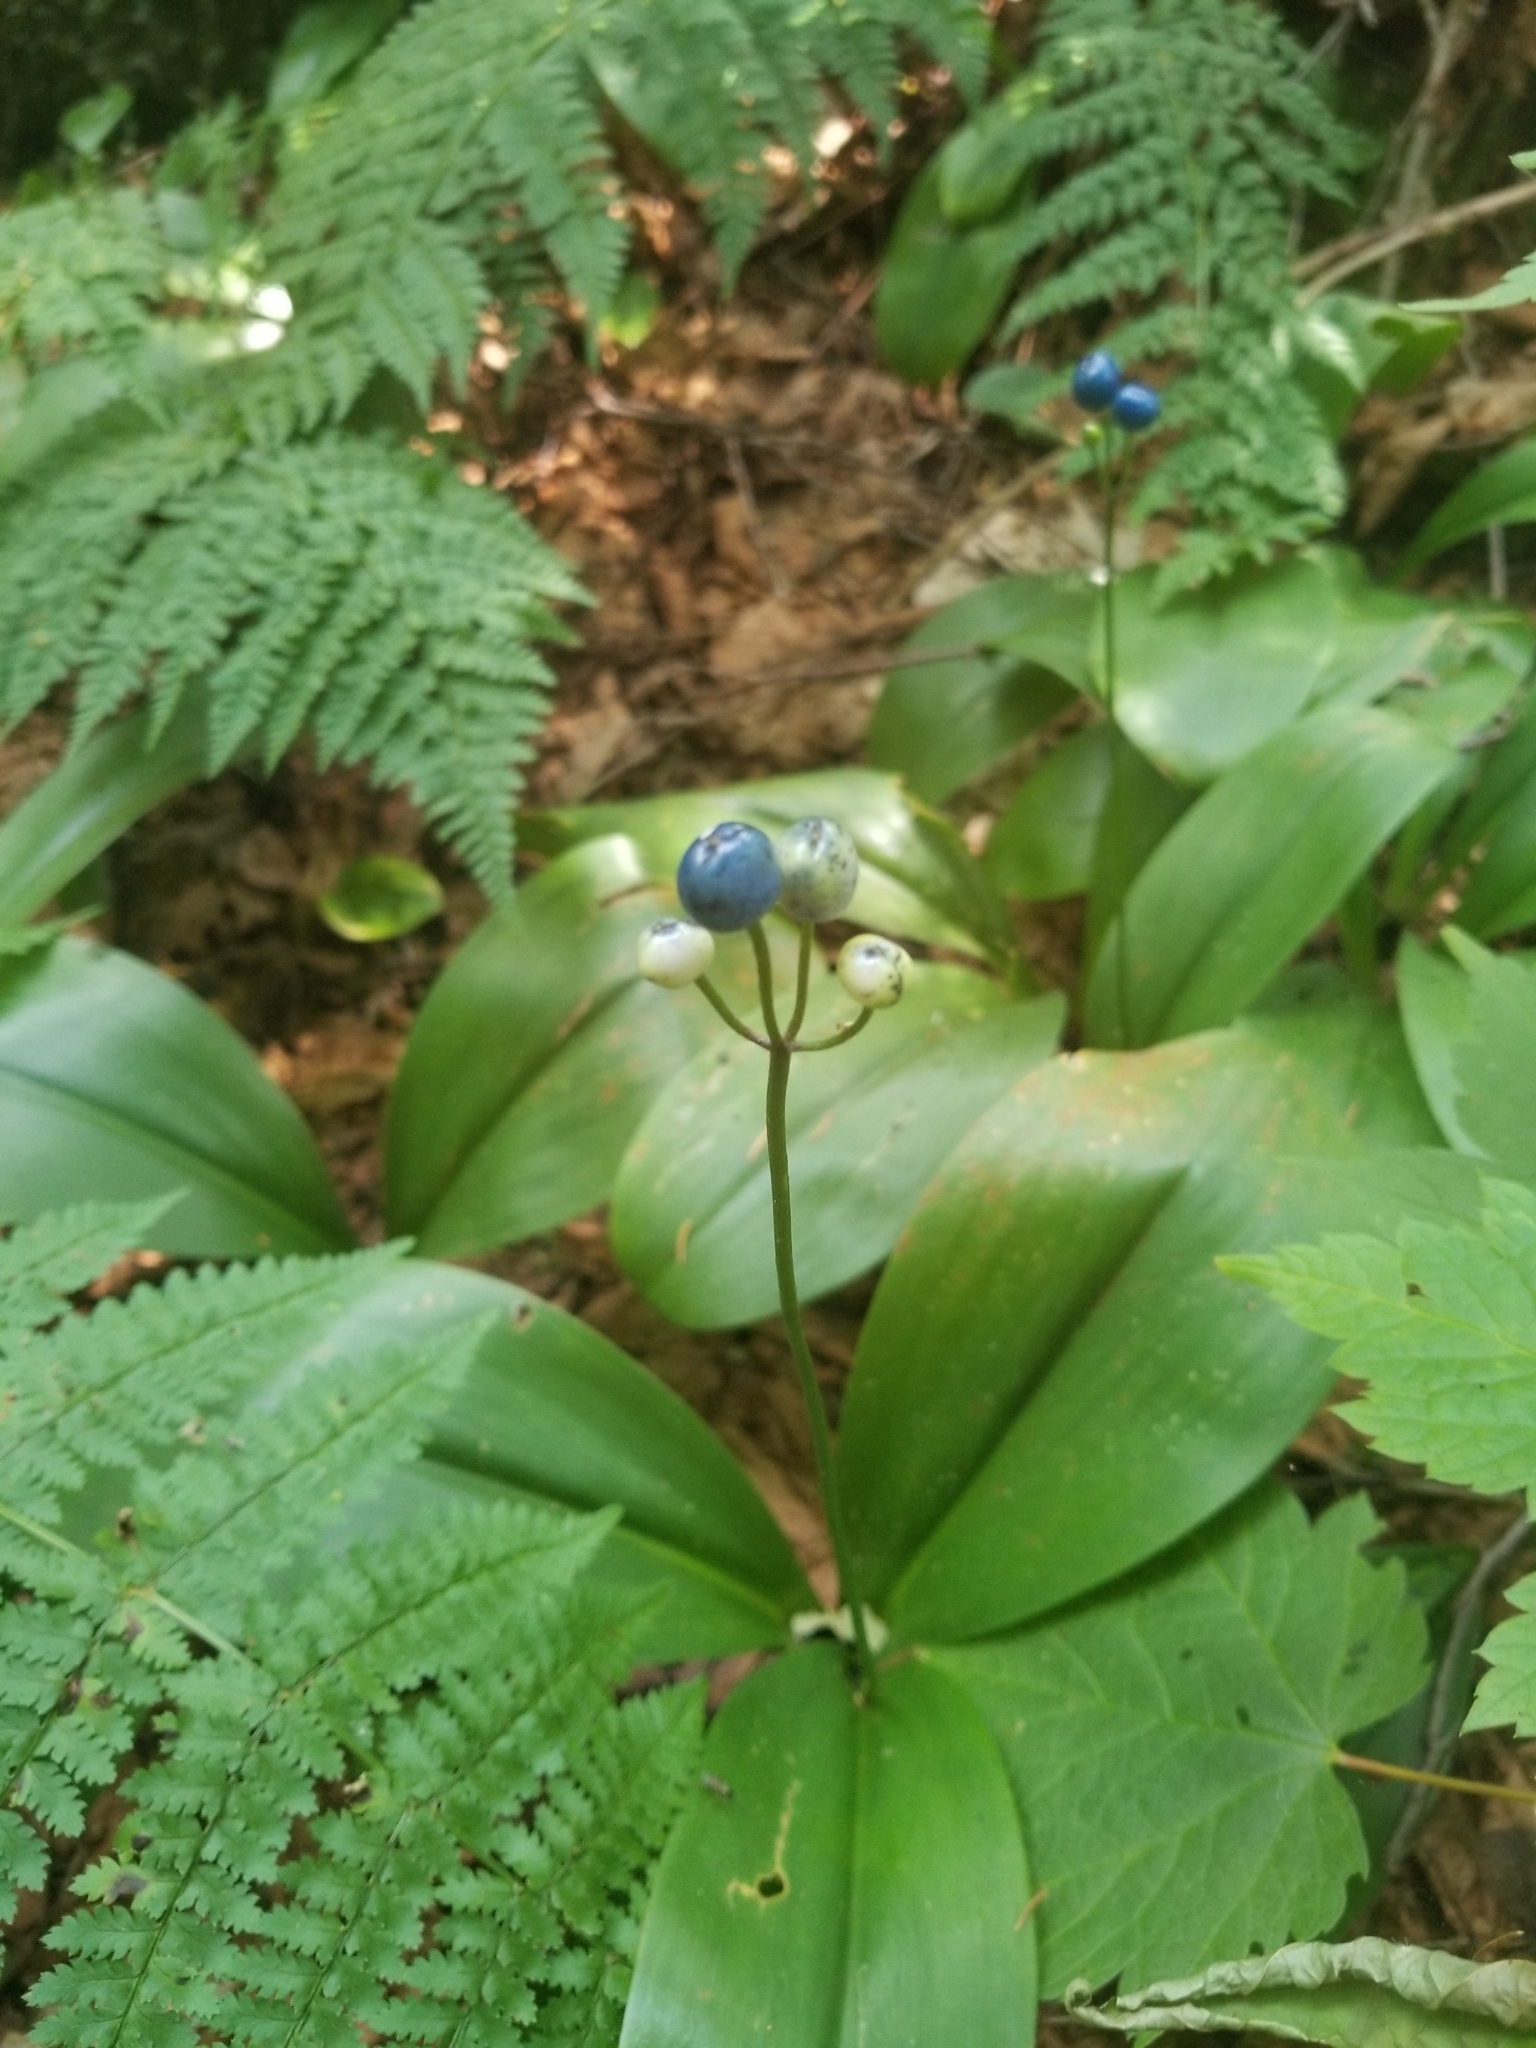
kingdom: Plantae
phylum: Tracheophyta
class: Liliopsida
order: Liliales
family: Liliaceae
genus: Clintonia
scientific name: Clintonia borealis
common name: Yellow clintonia
